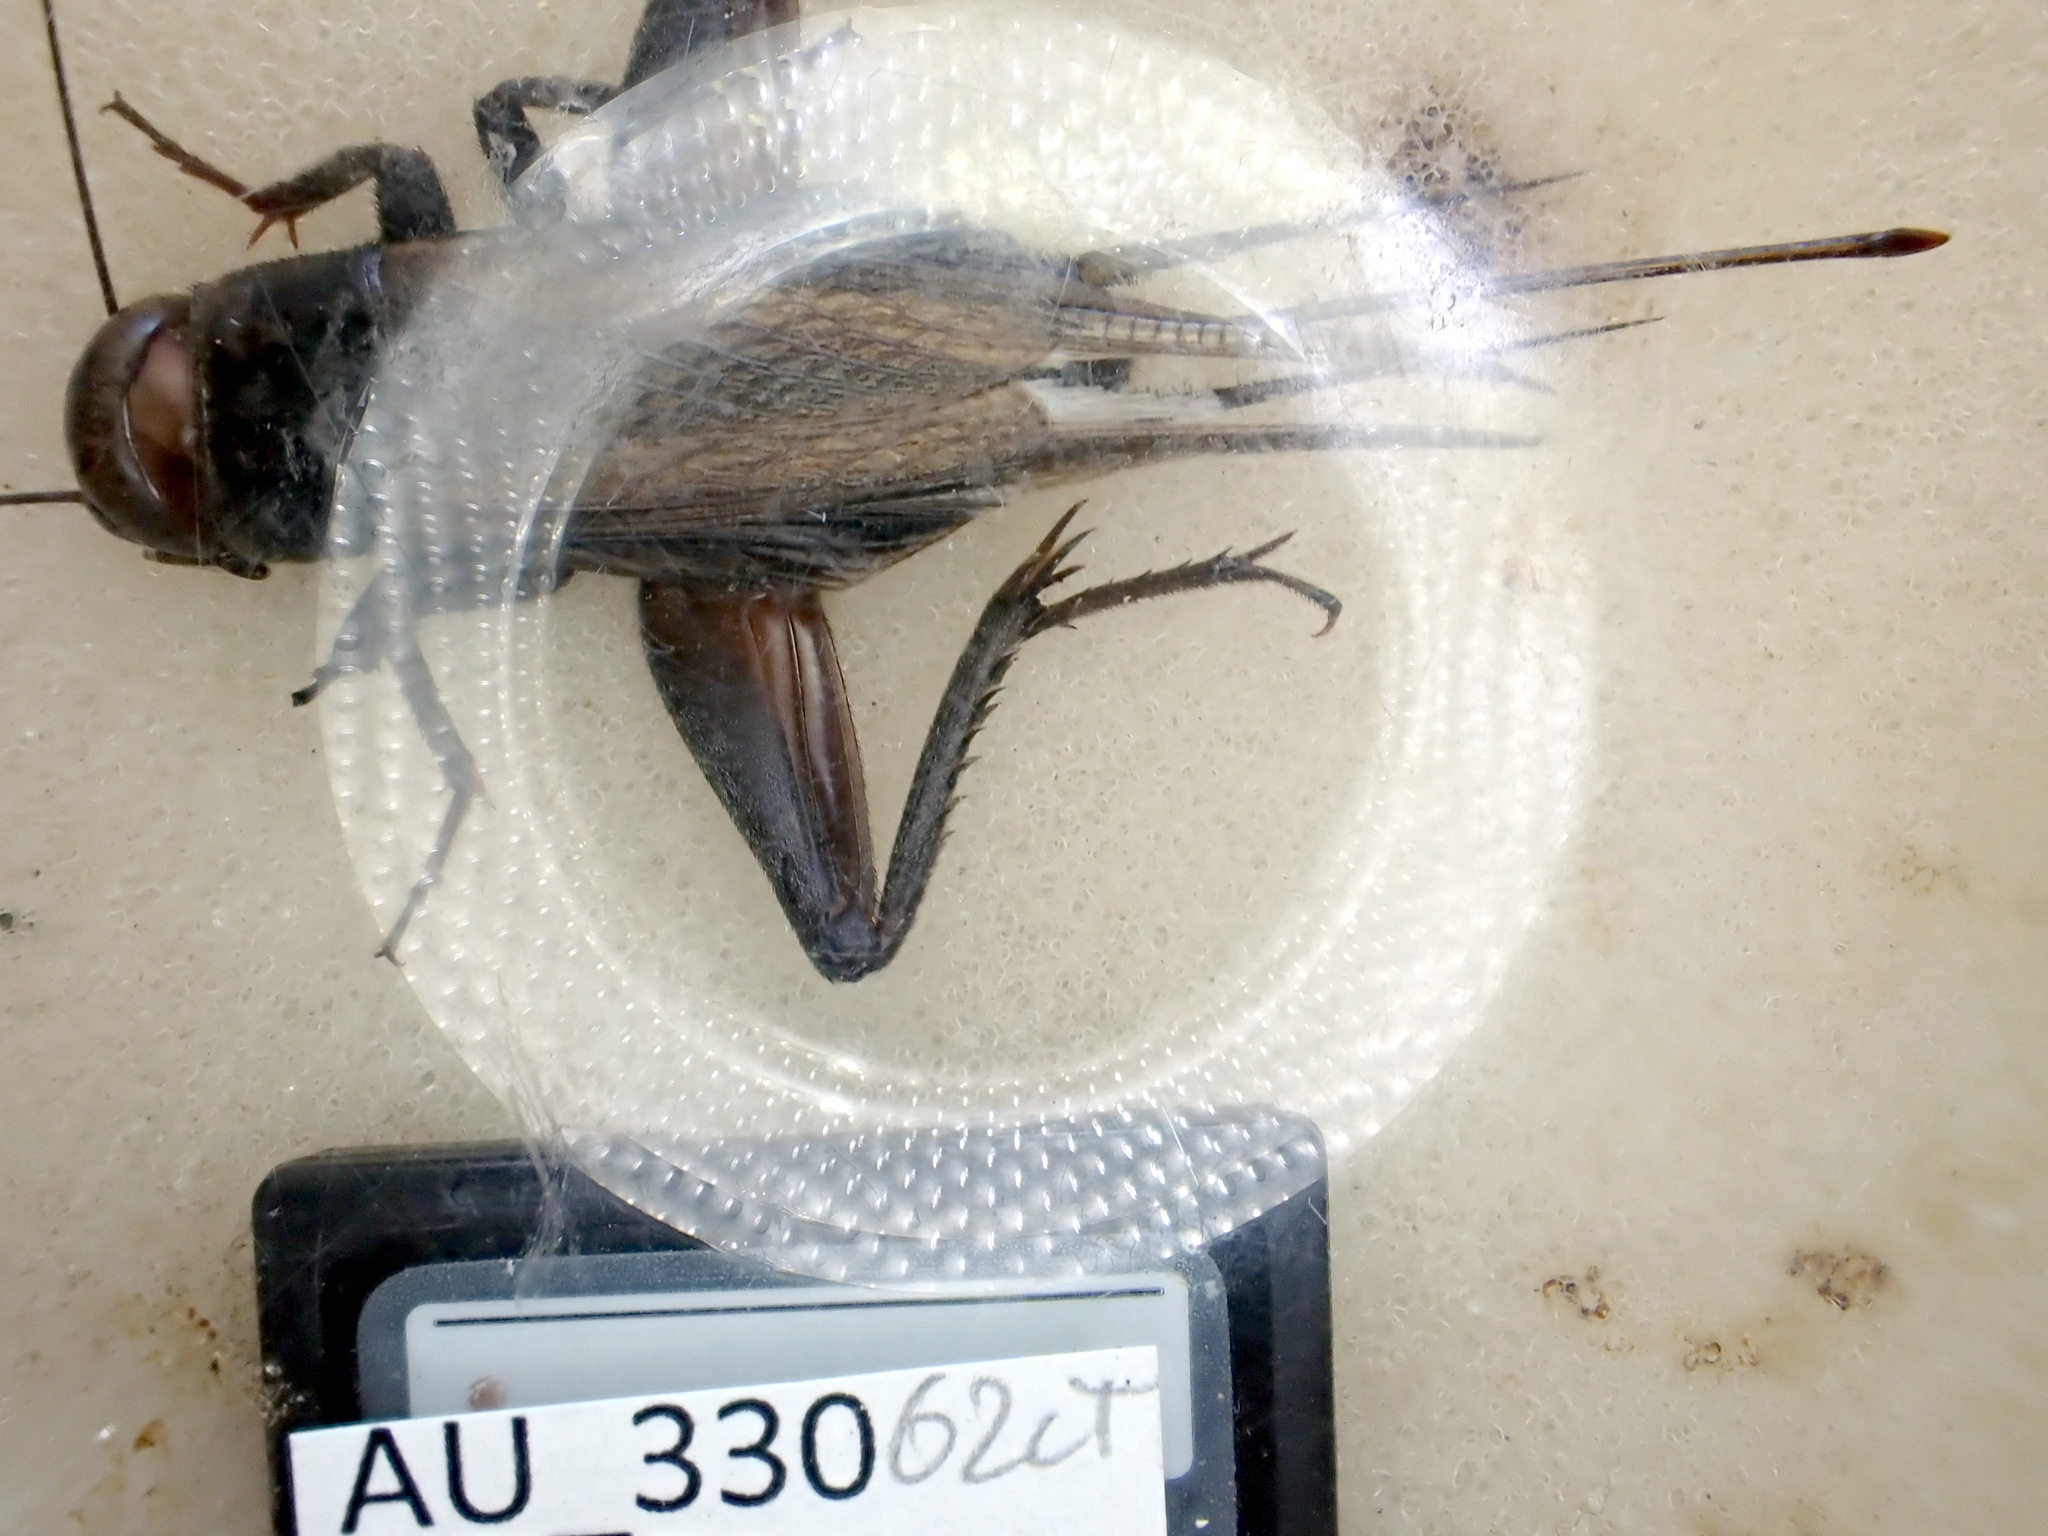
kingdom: Animalia
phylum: Arthropoda
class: Insecta
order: Orthoptera
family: Gryllidae
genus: Teleogryllus
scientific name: Teleogryllus commodus
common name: Black field cricket
